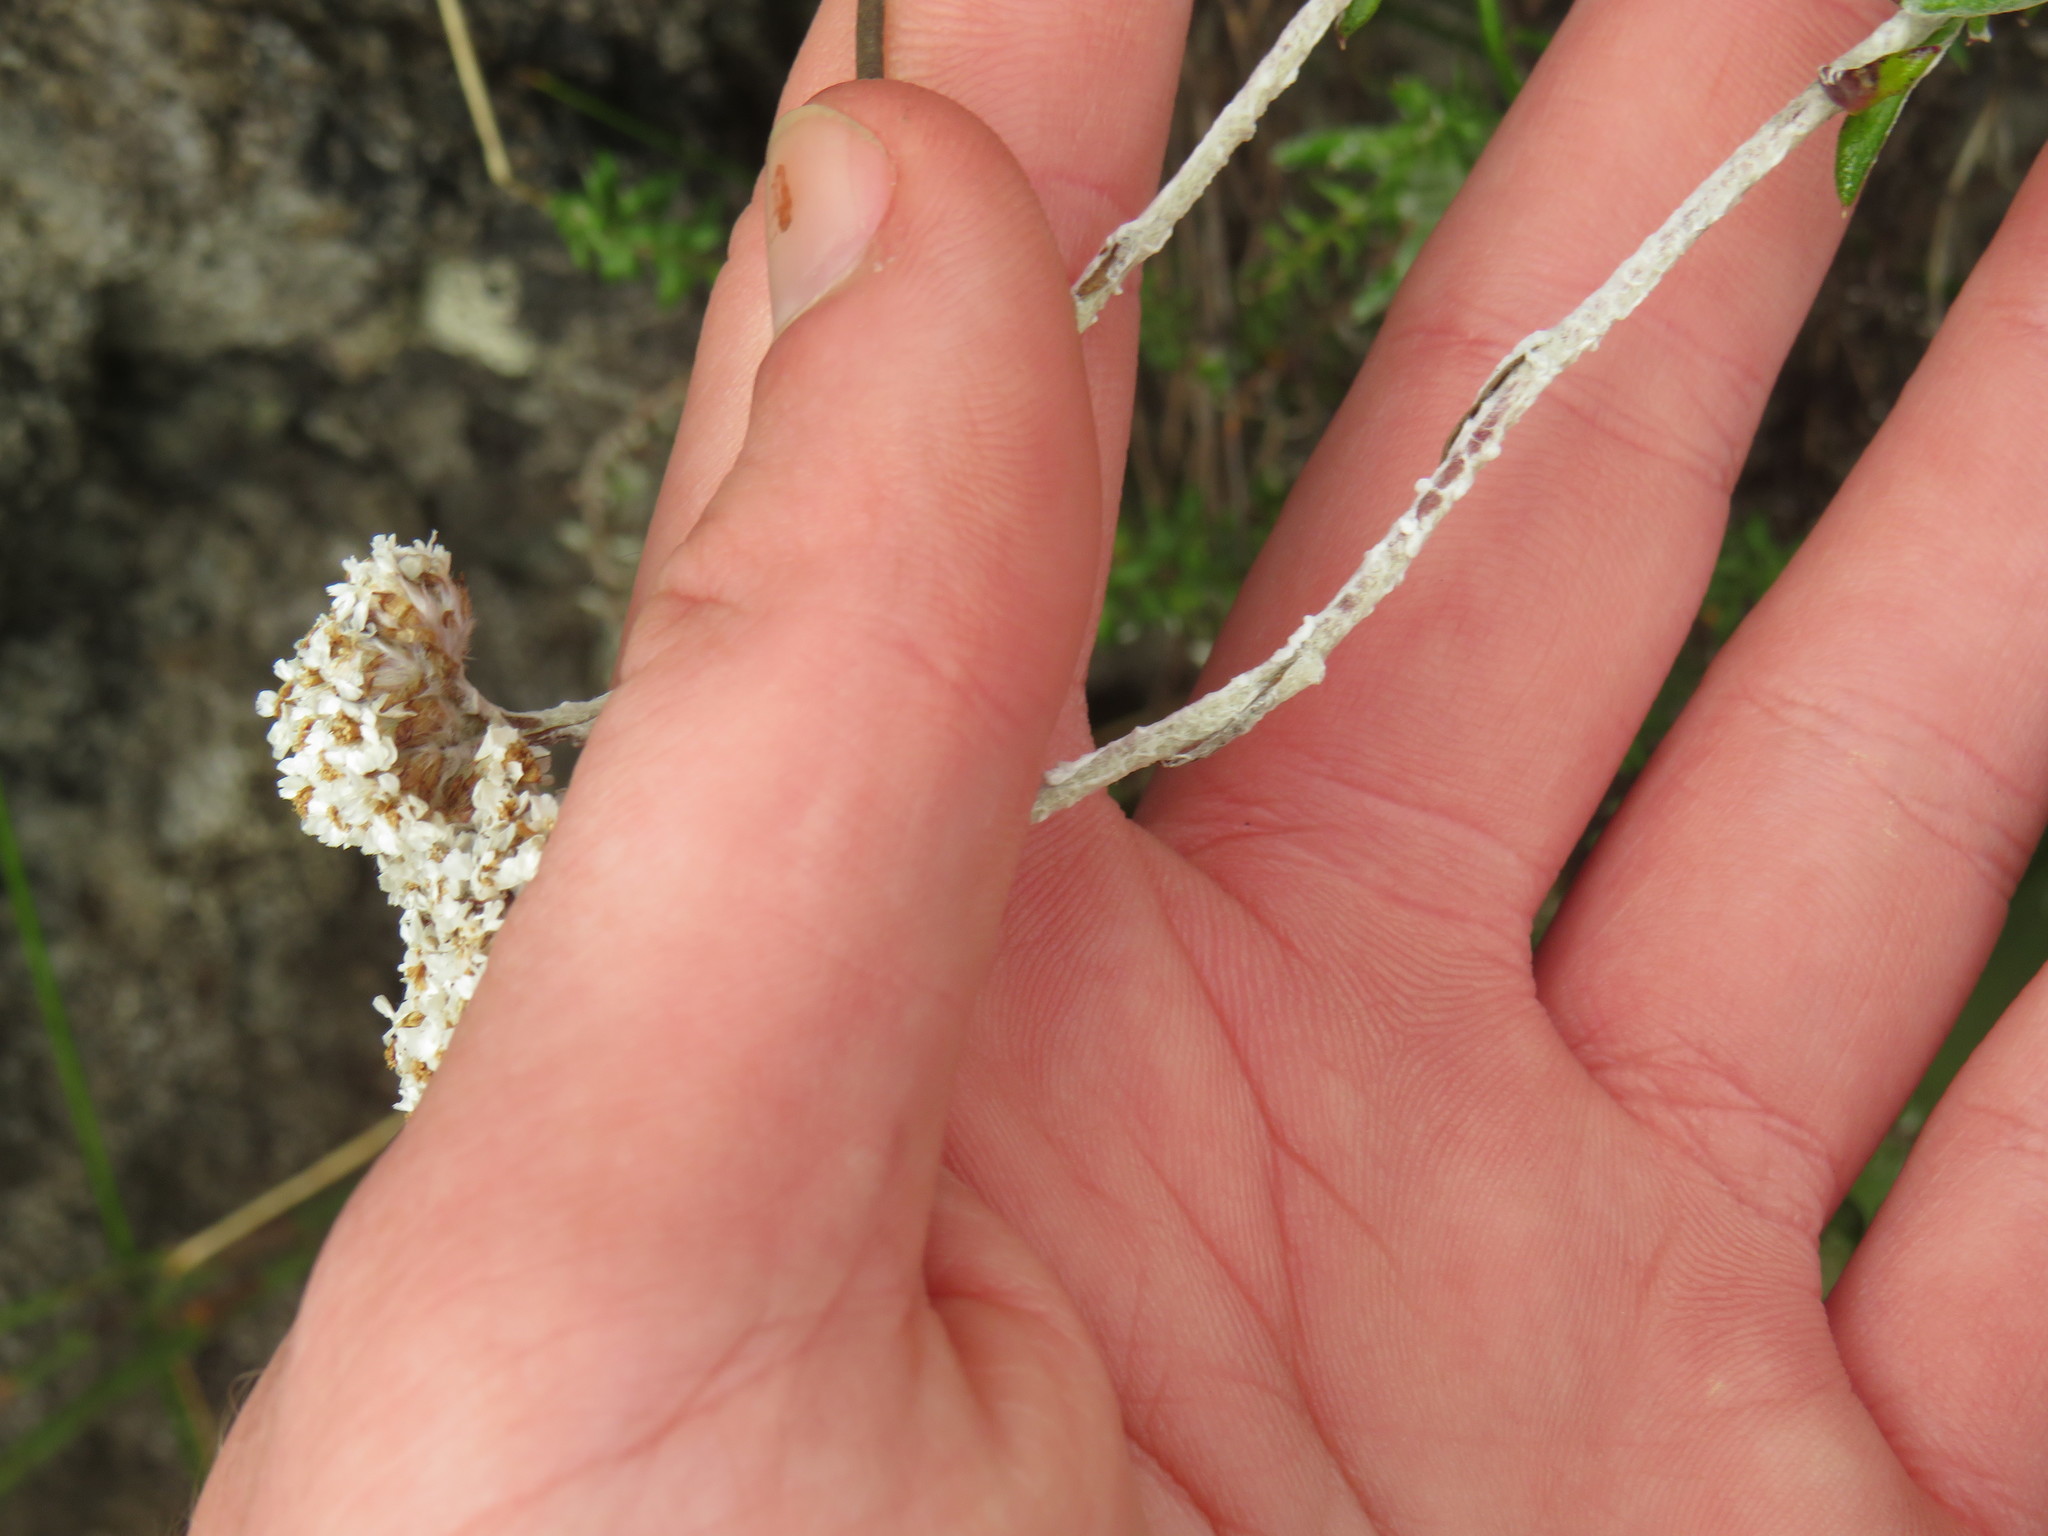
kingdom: Plantae
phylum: Tracheophyta
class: Magnoliopsida
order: Asterales
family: Asteraceae
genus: Anaxeton
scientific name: Anaxeton asperum
